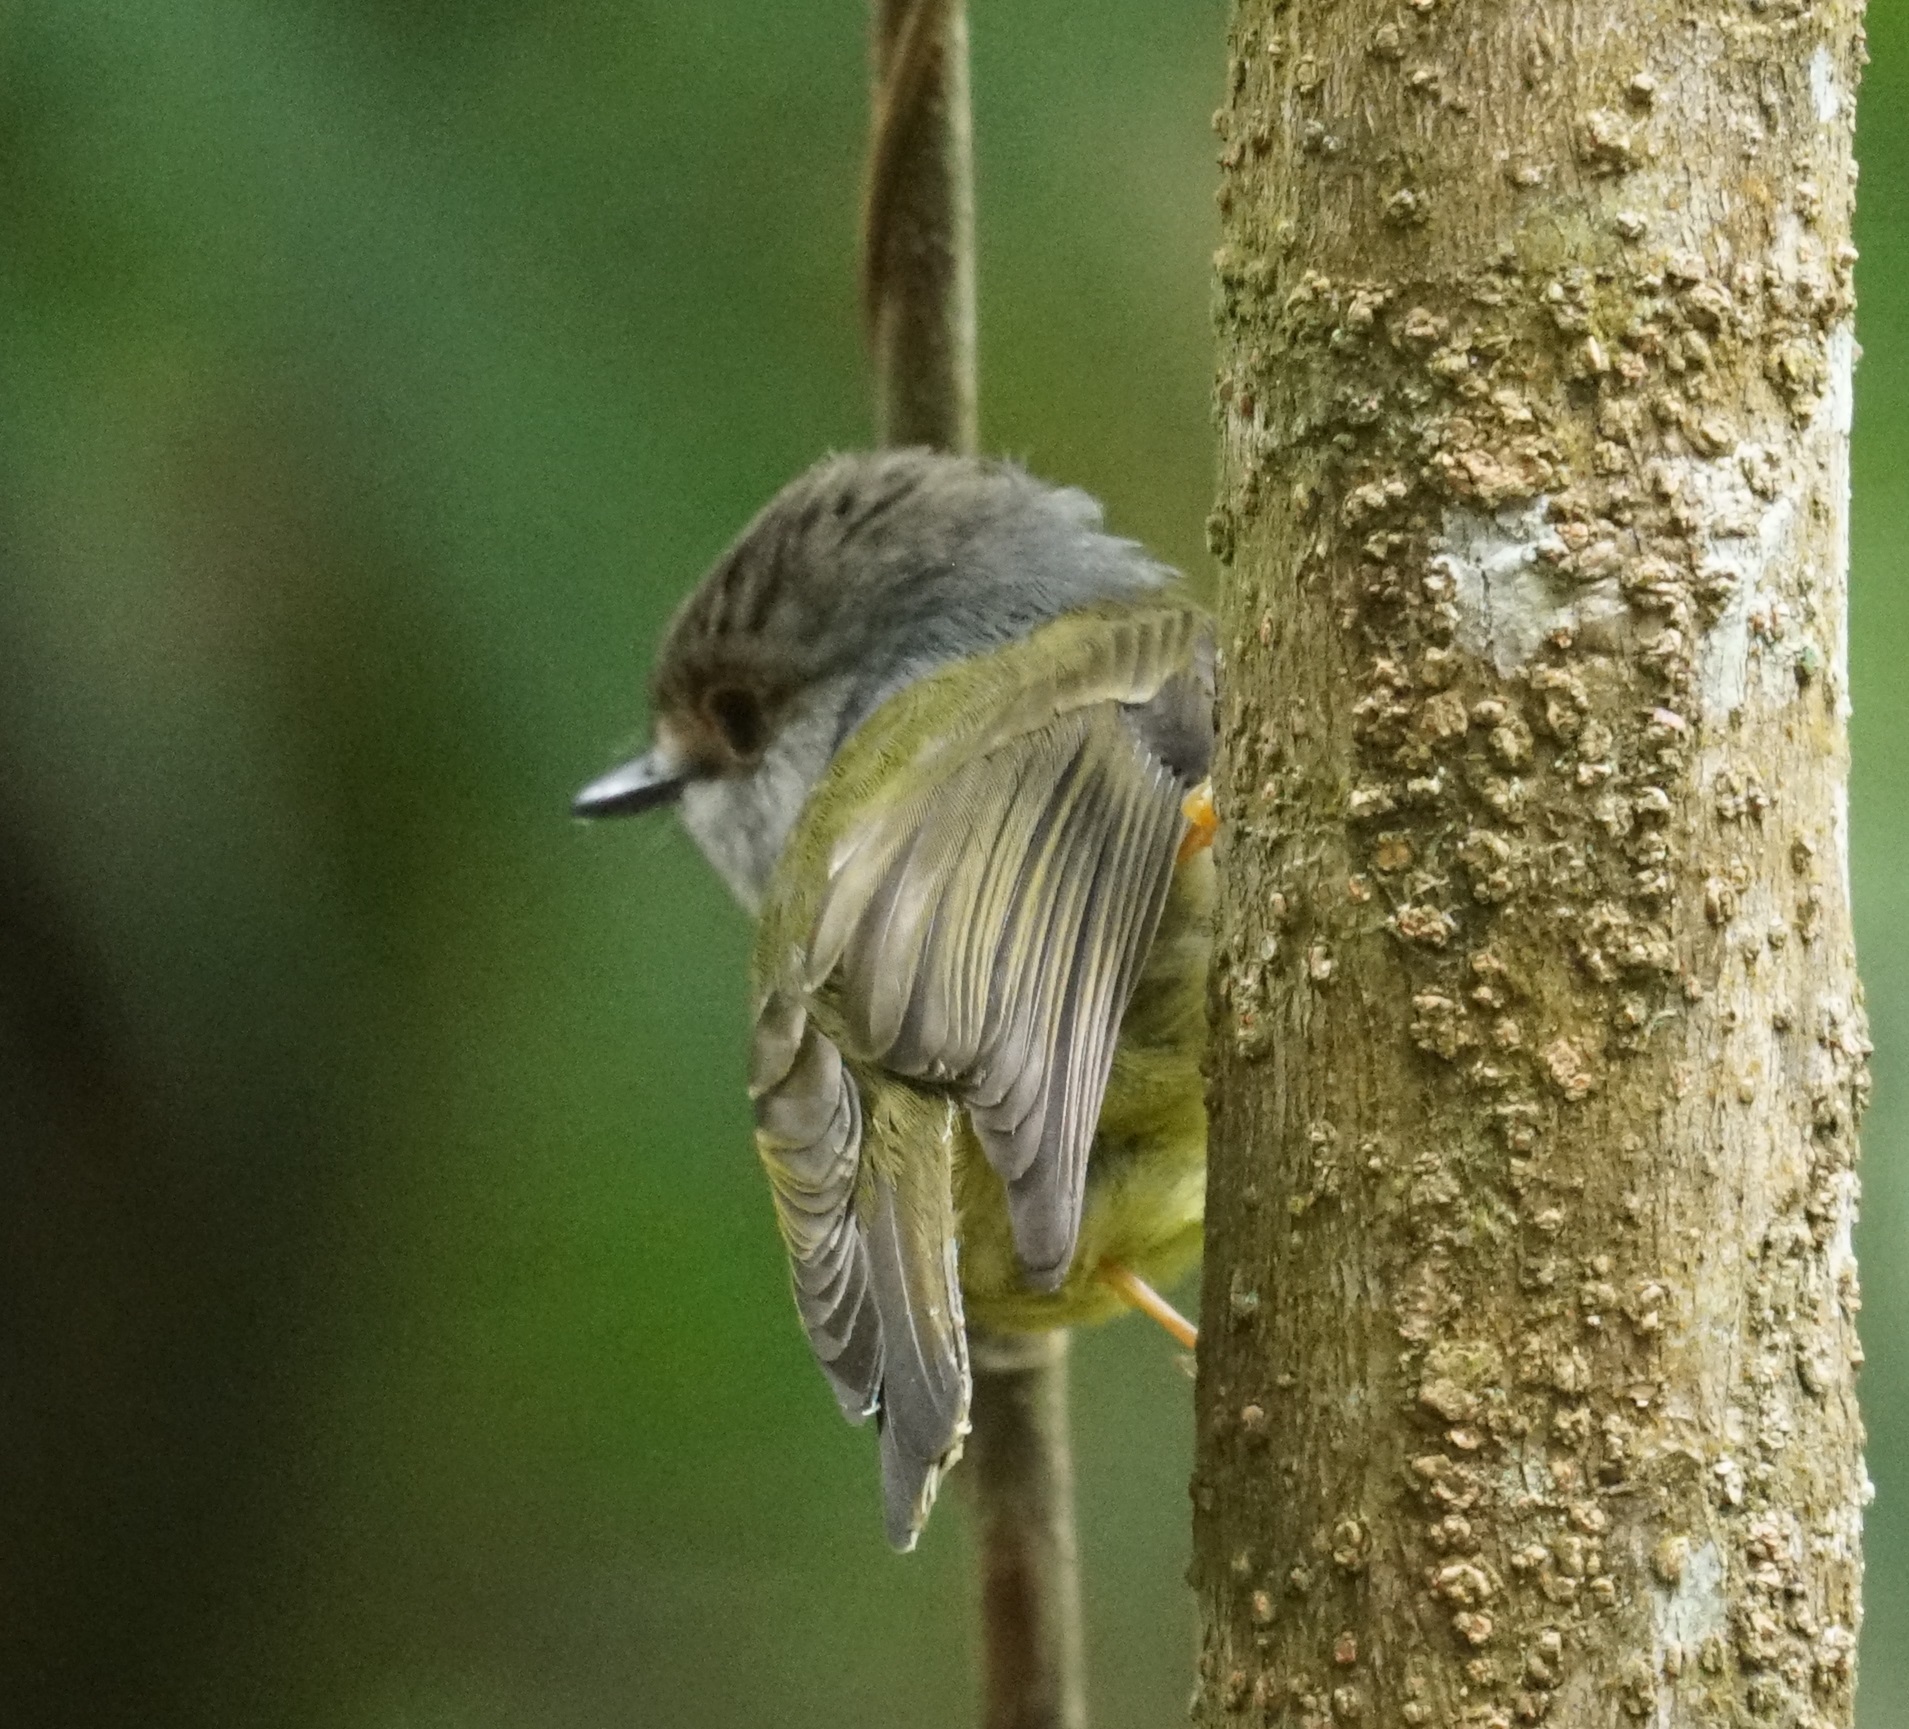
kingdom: Animalia
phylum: Chordata
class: Aves
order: Passeriformes
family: Petroicidae
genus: Eopsaltria
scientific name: Eopsaltria
